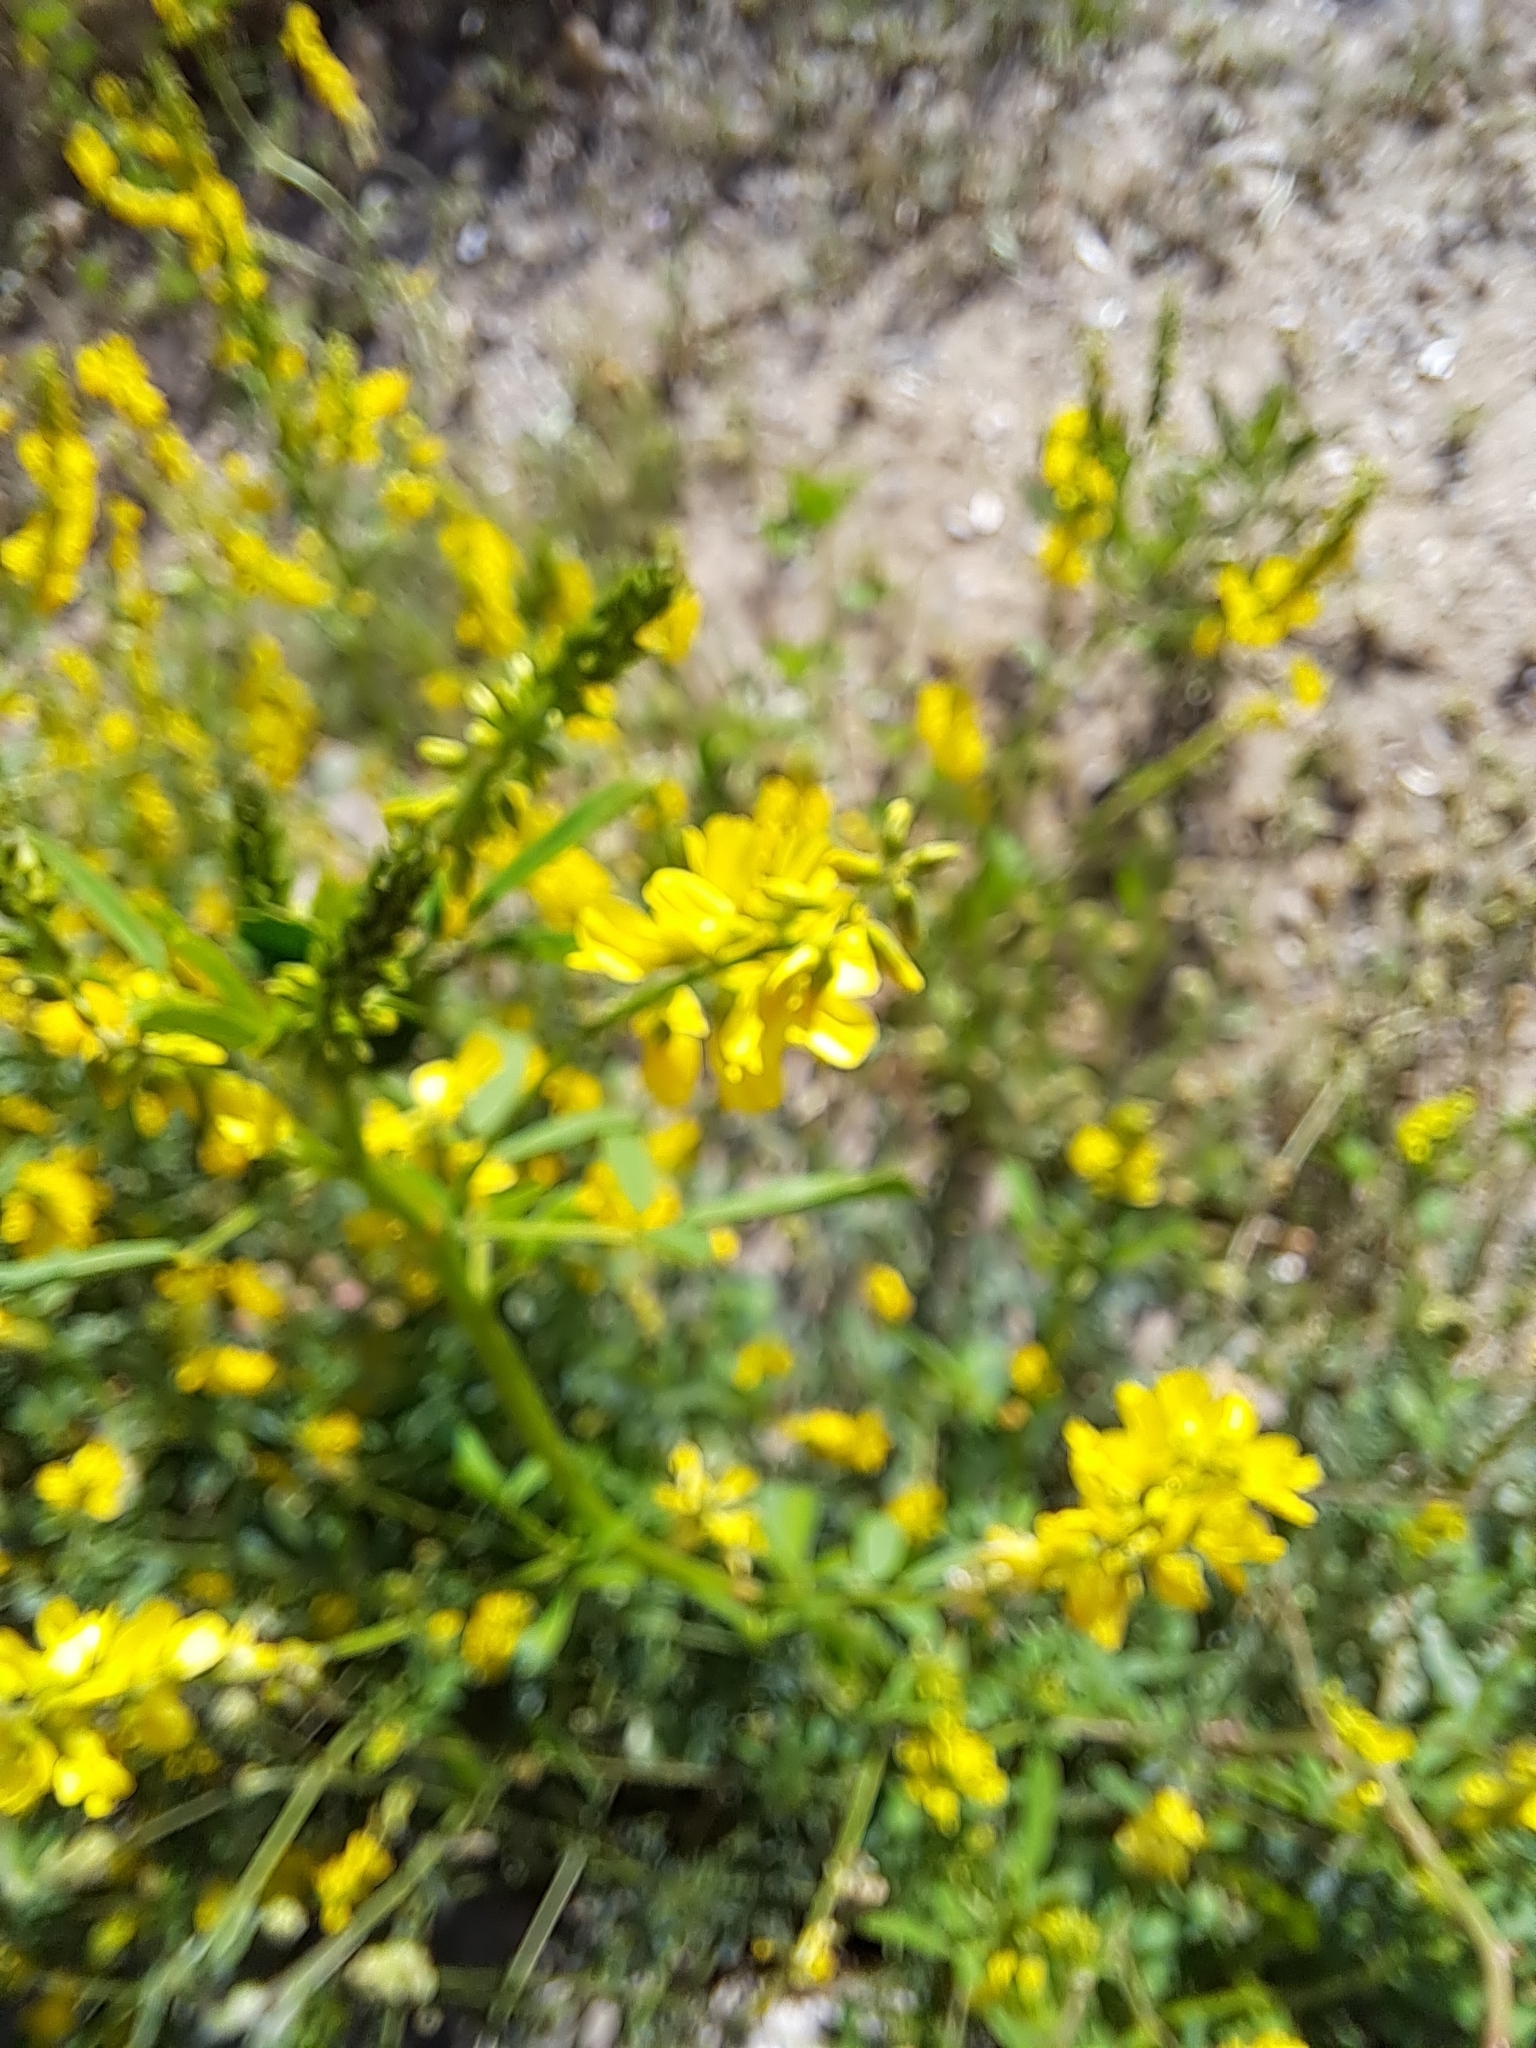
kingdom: Plantae
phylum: Tracheophyta
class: Magnoliopsida
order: Fabales
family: Fabaceae
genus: Melilotus
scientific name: Melilotus officinalis
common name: Sweetclover
